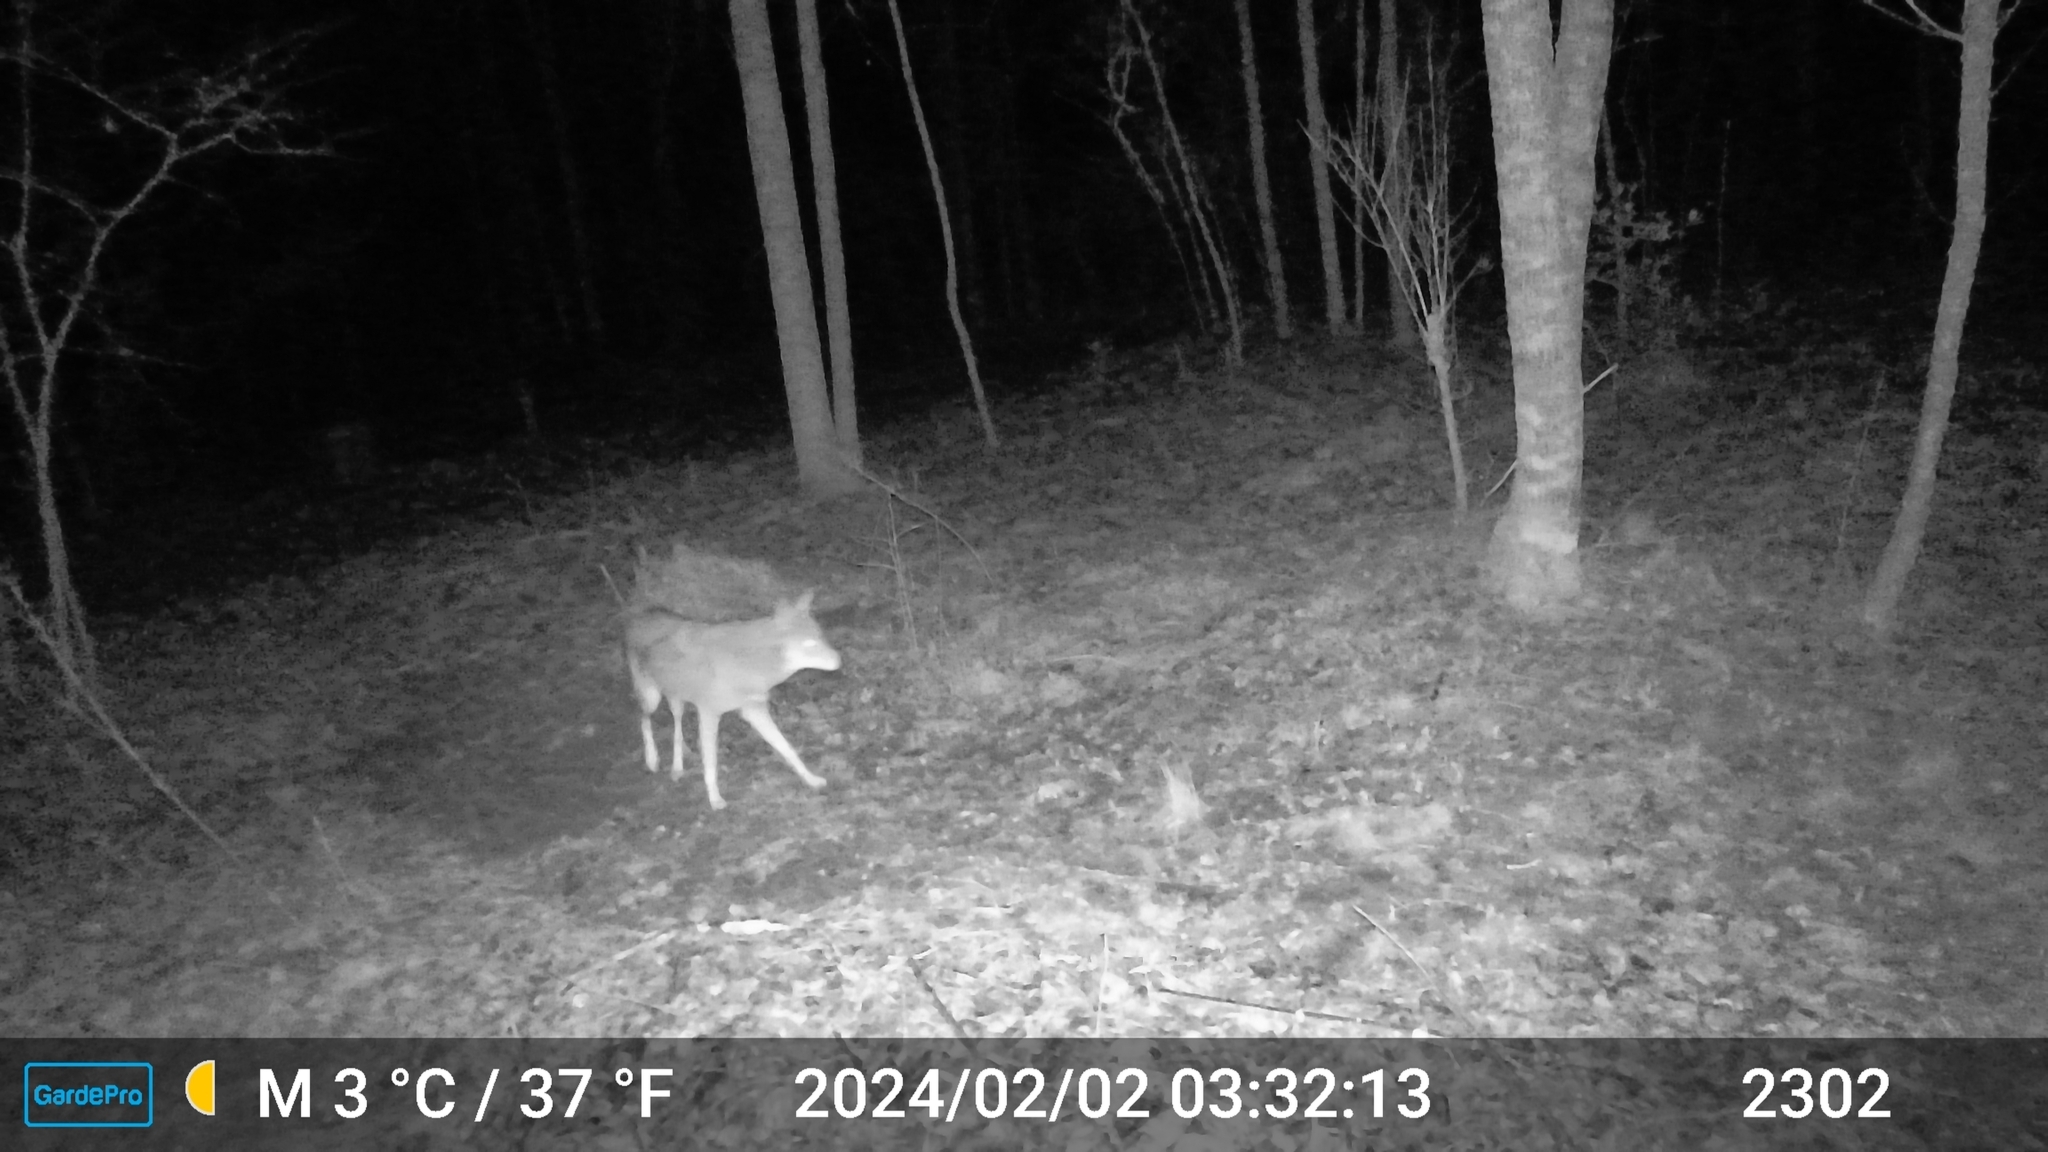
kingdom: Animalia
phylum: Chordata
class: Mammalia
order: Carnivora
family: Canidae
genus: Canis
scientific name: Canis latrans
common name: Coyote
